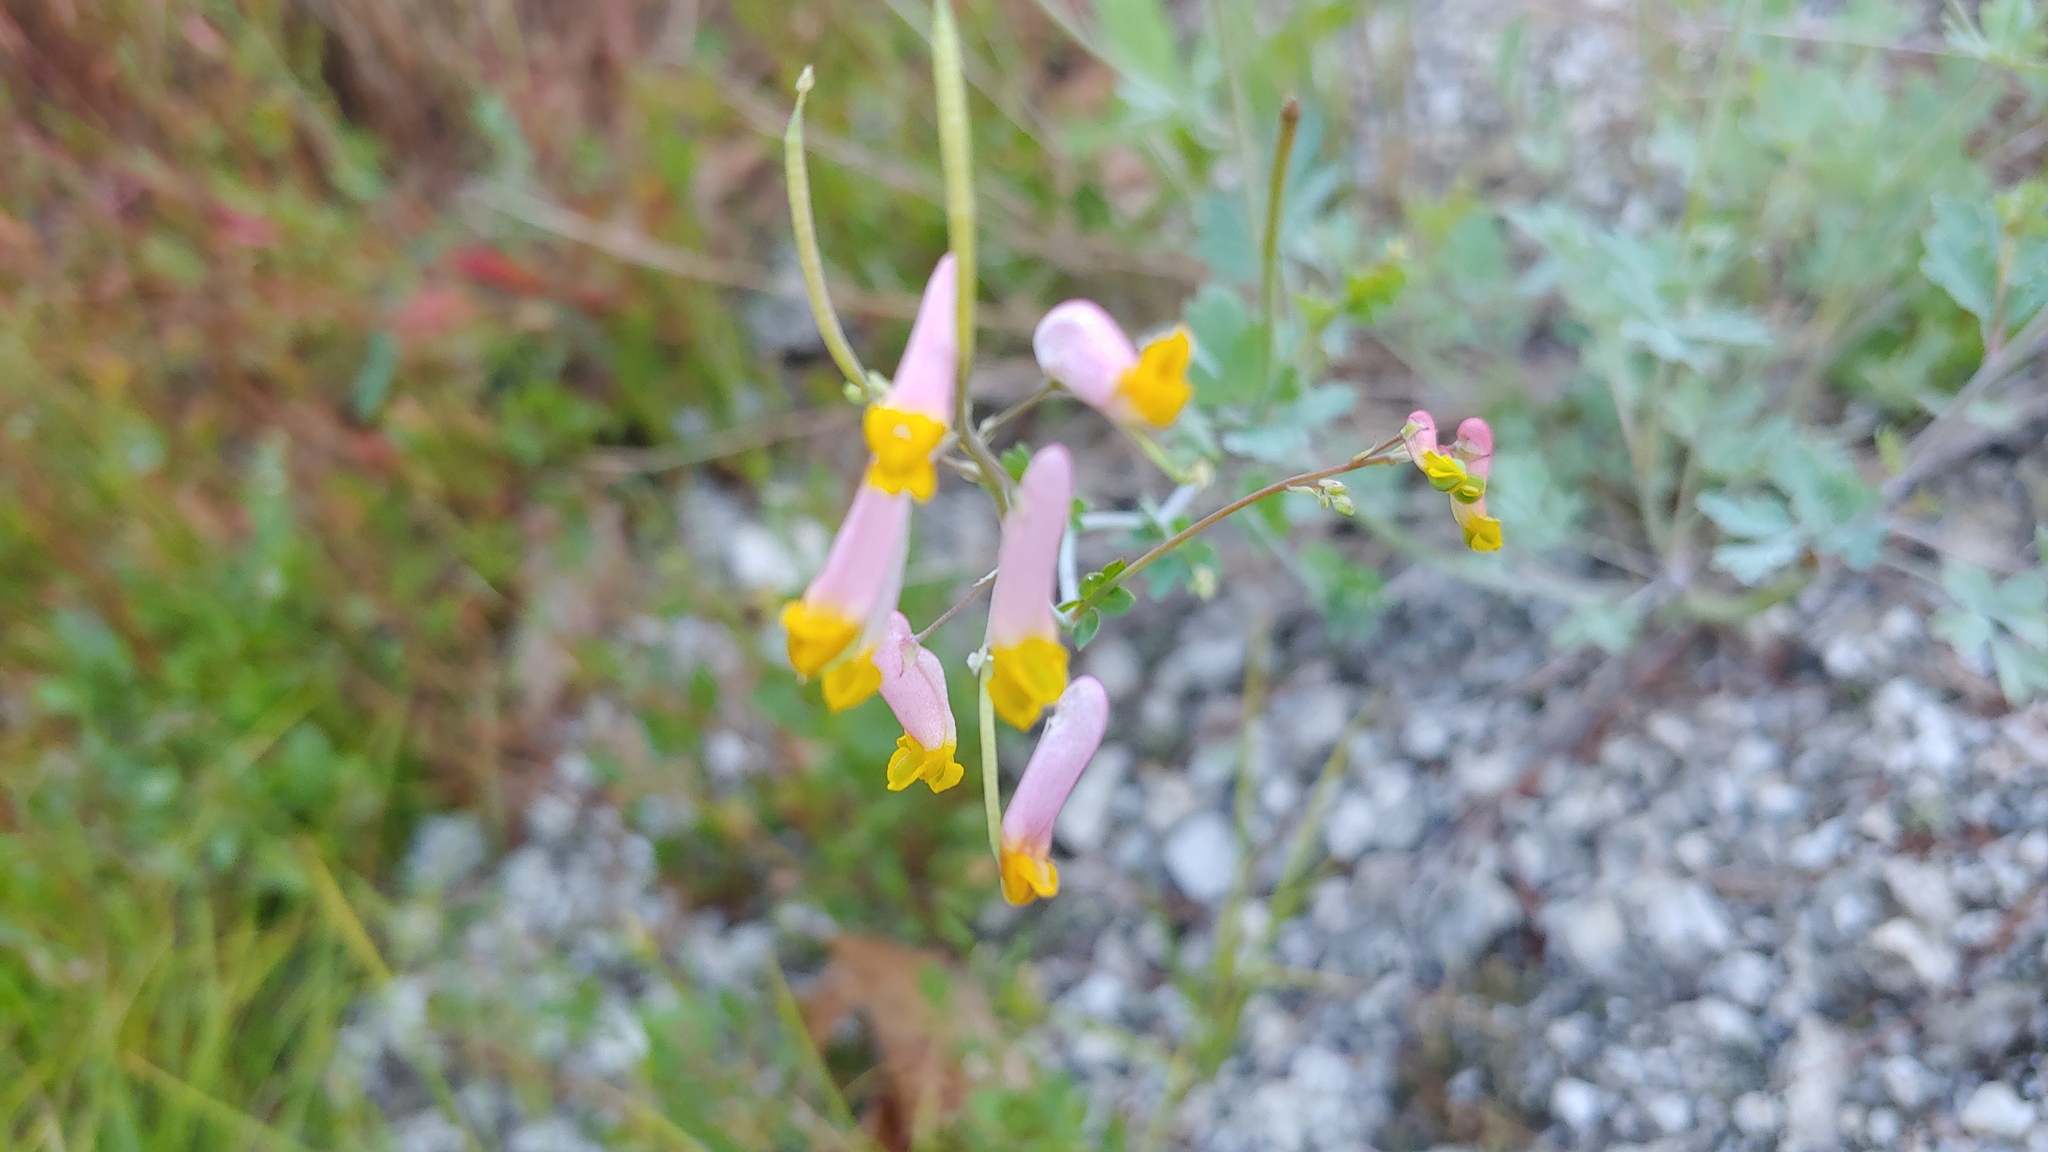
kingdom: Plantae
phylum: Tracheophyta
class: Magnoliopsida
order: Ranunculales
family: Papaveraceae
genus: Capnoides
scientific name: Capnoides sempervirens
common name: Rock harlequin
